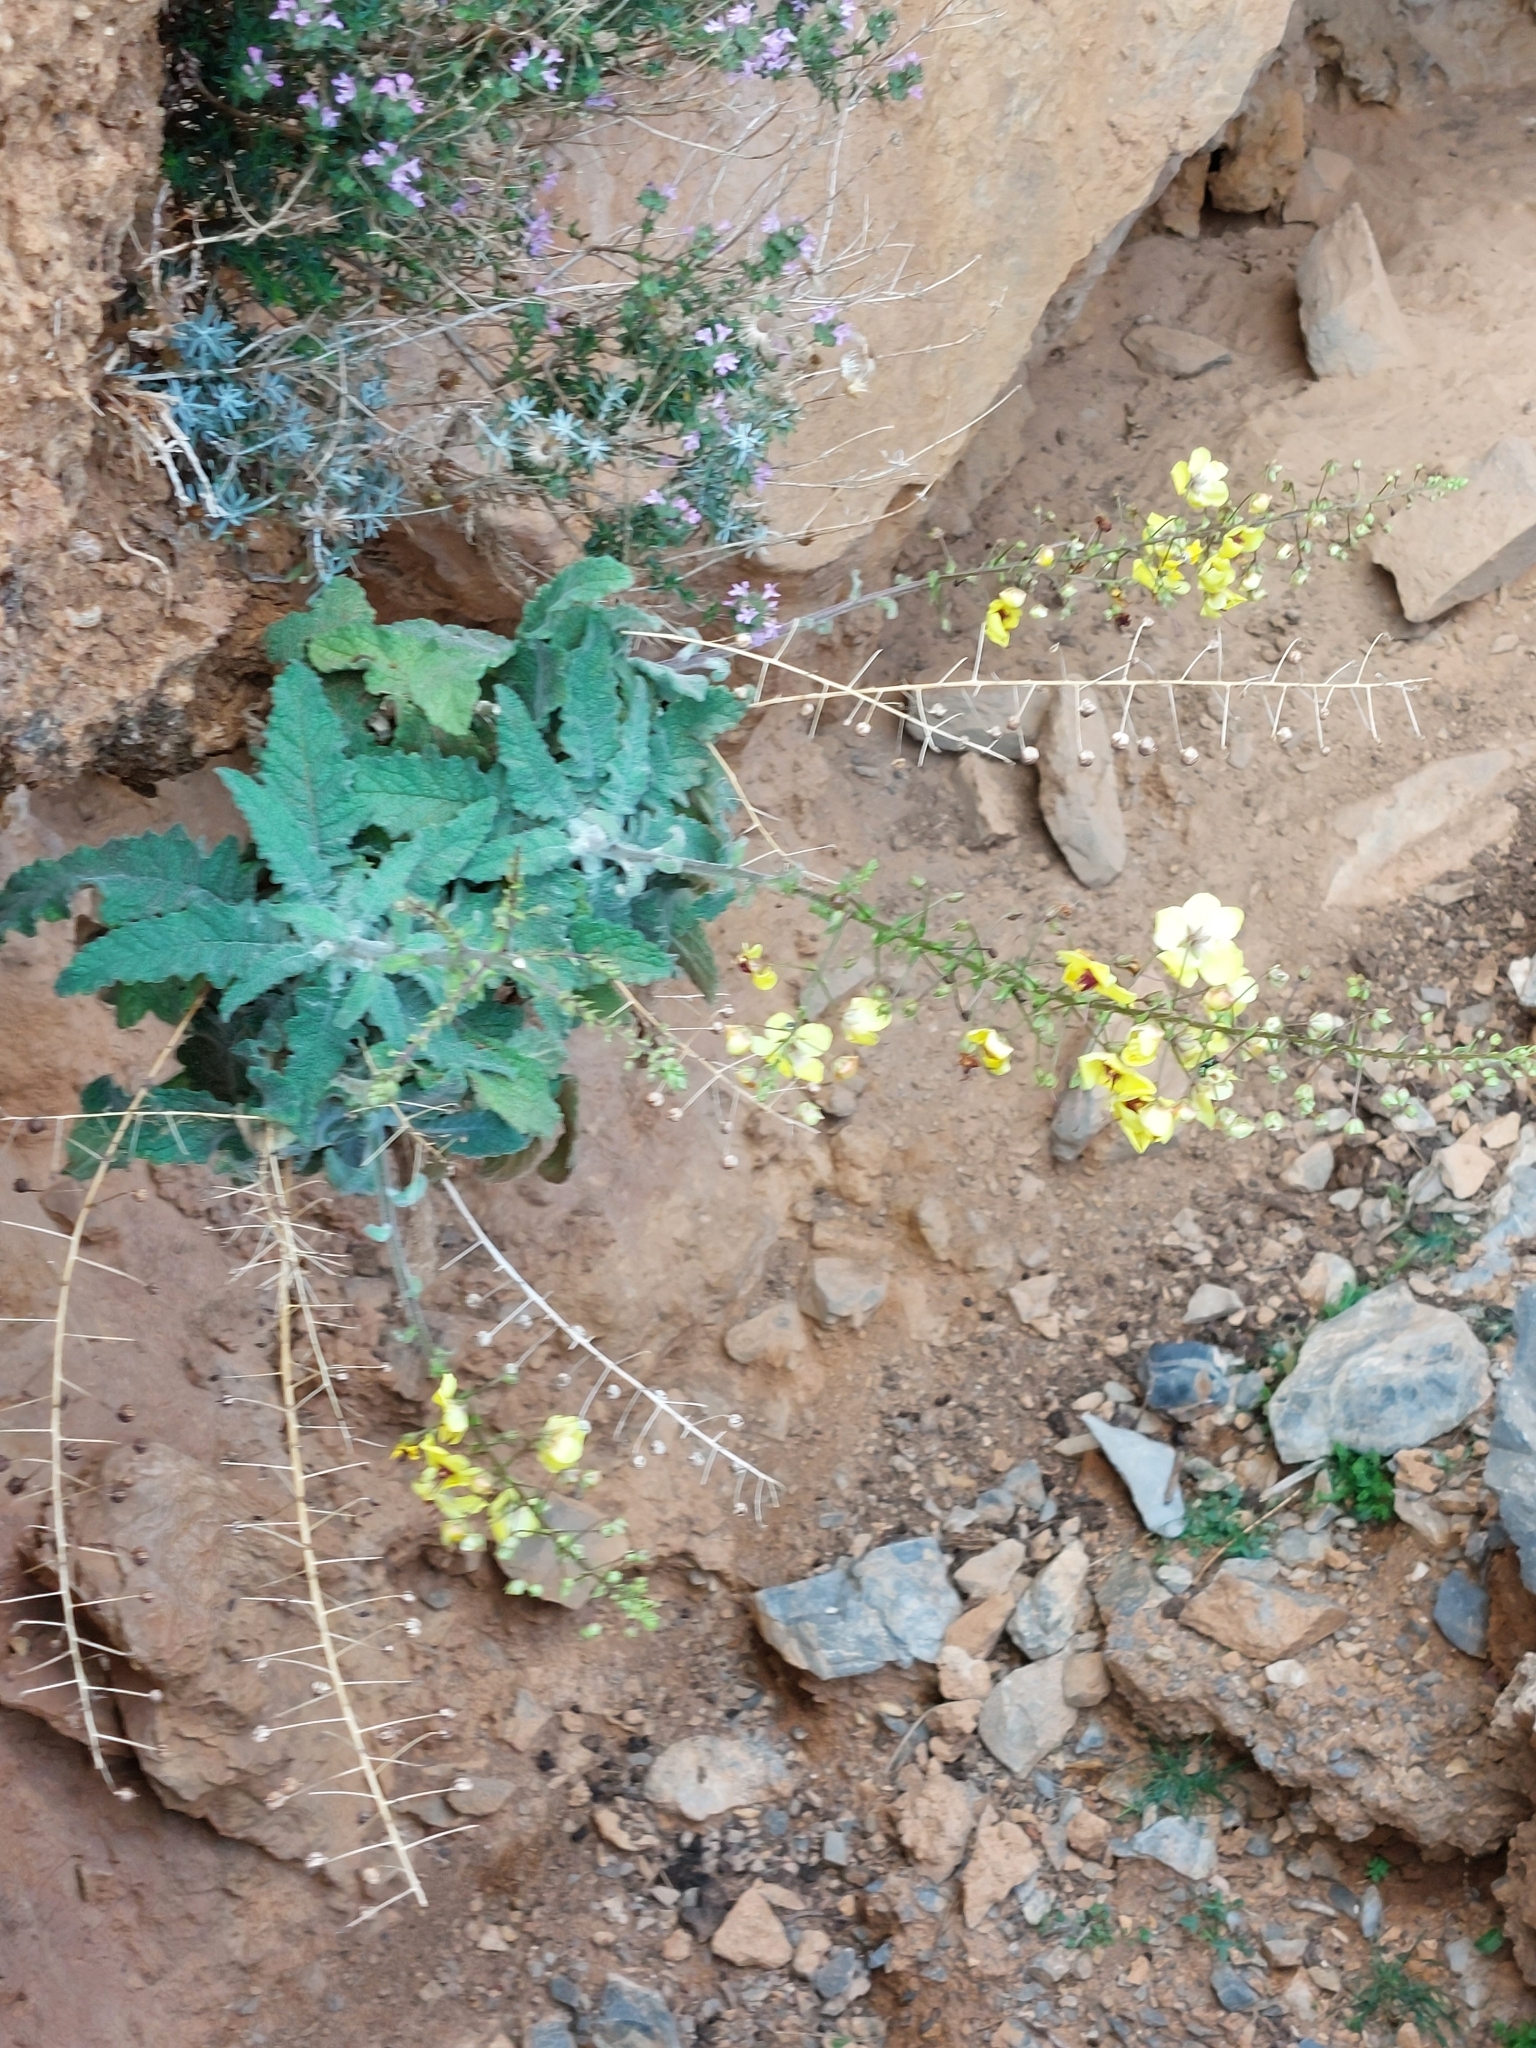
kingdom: Plantae
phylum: Tracheophyta
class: Magnoliopsida
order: Lamiales
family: Scrophulariaceae
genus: Verbascum
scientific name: Verbascum arcturus
